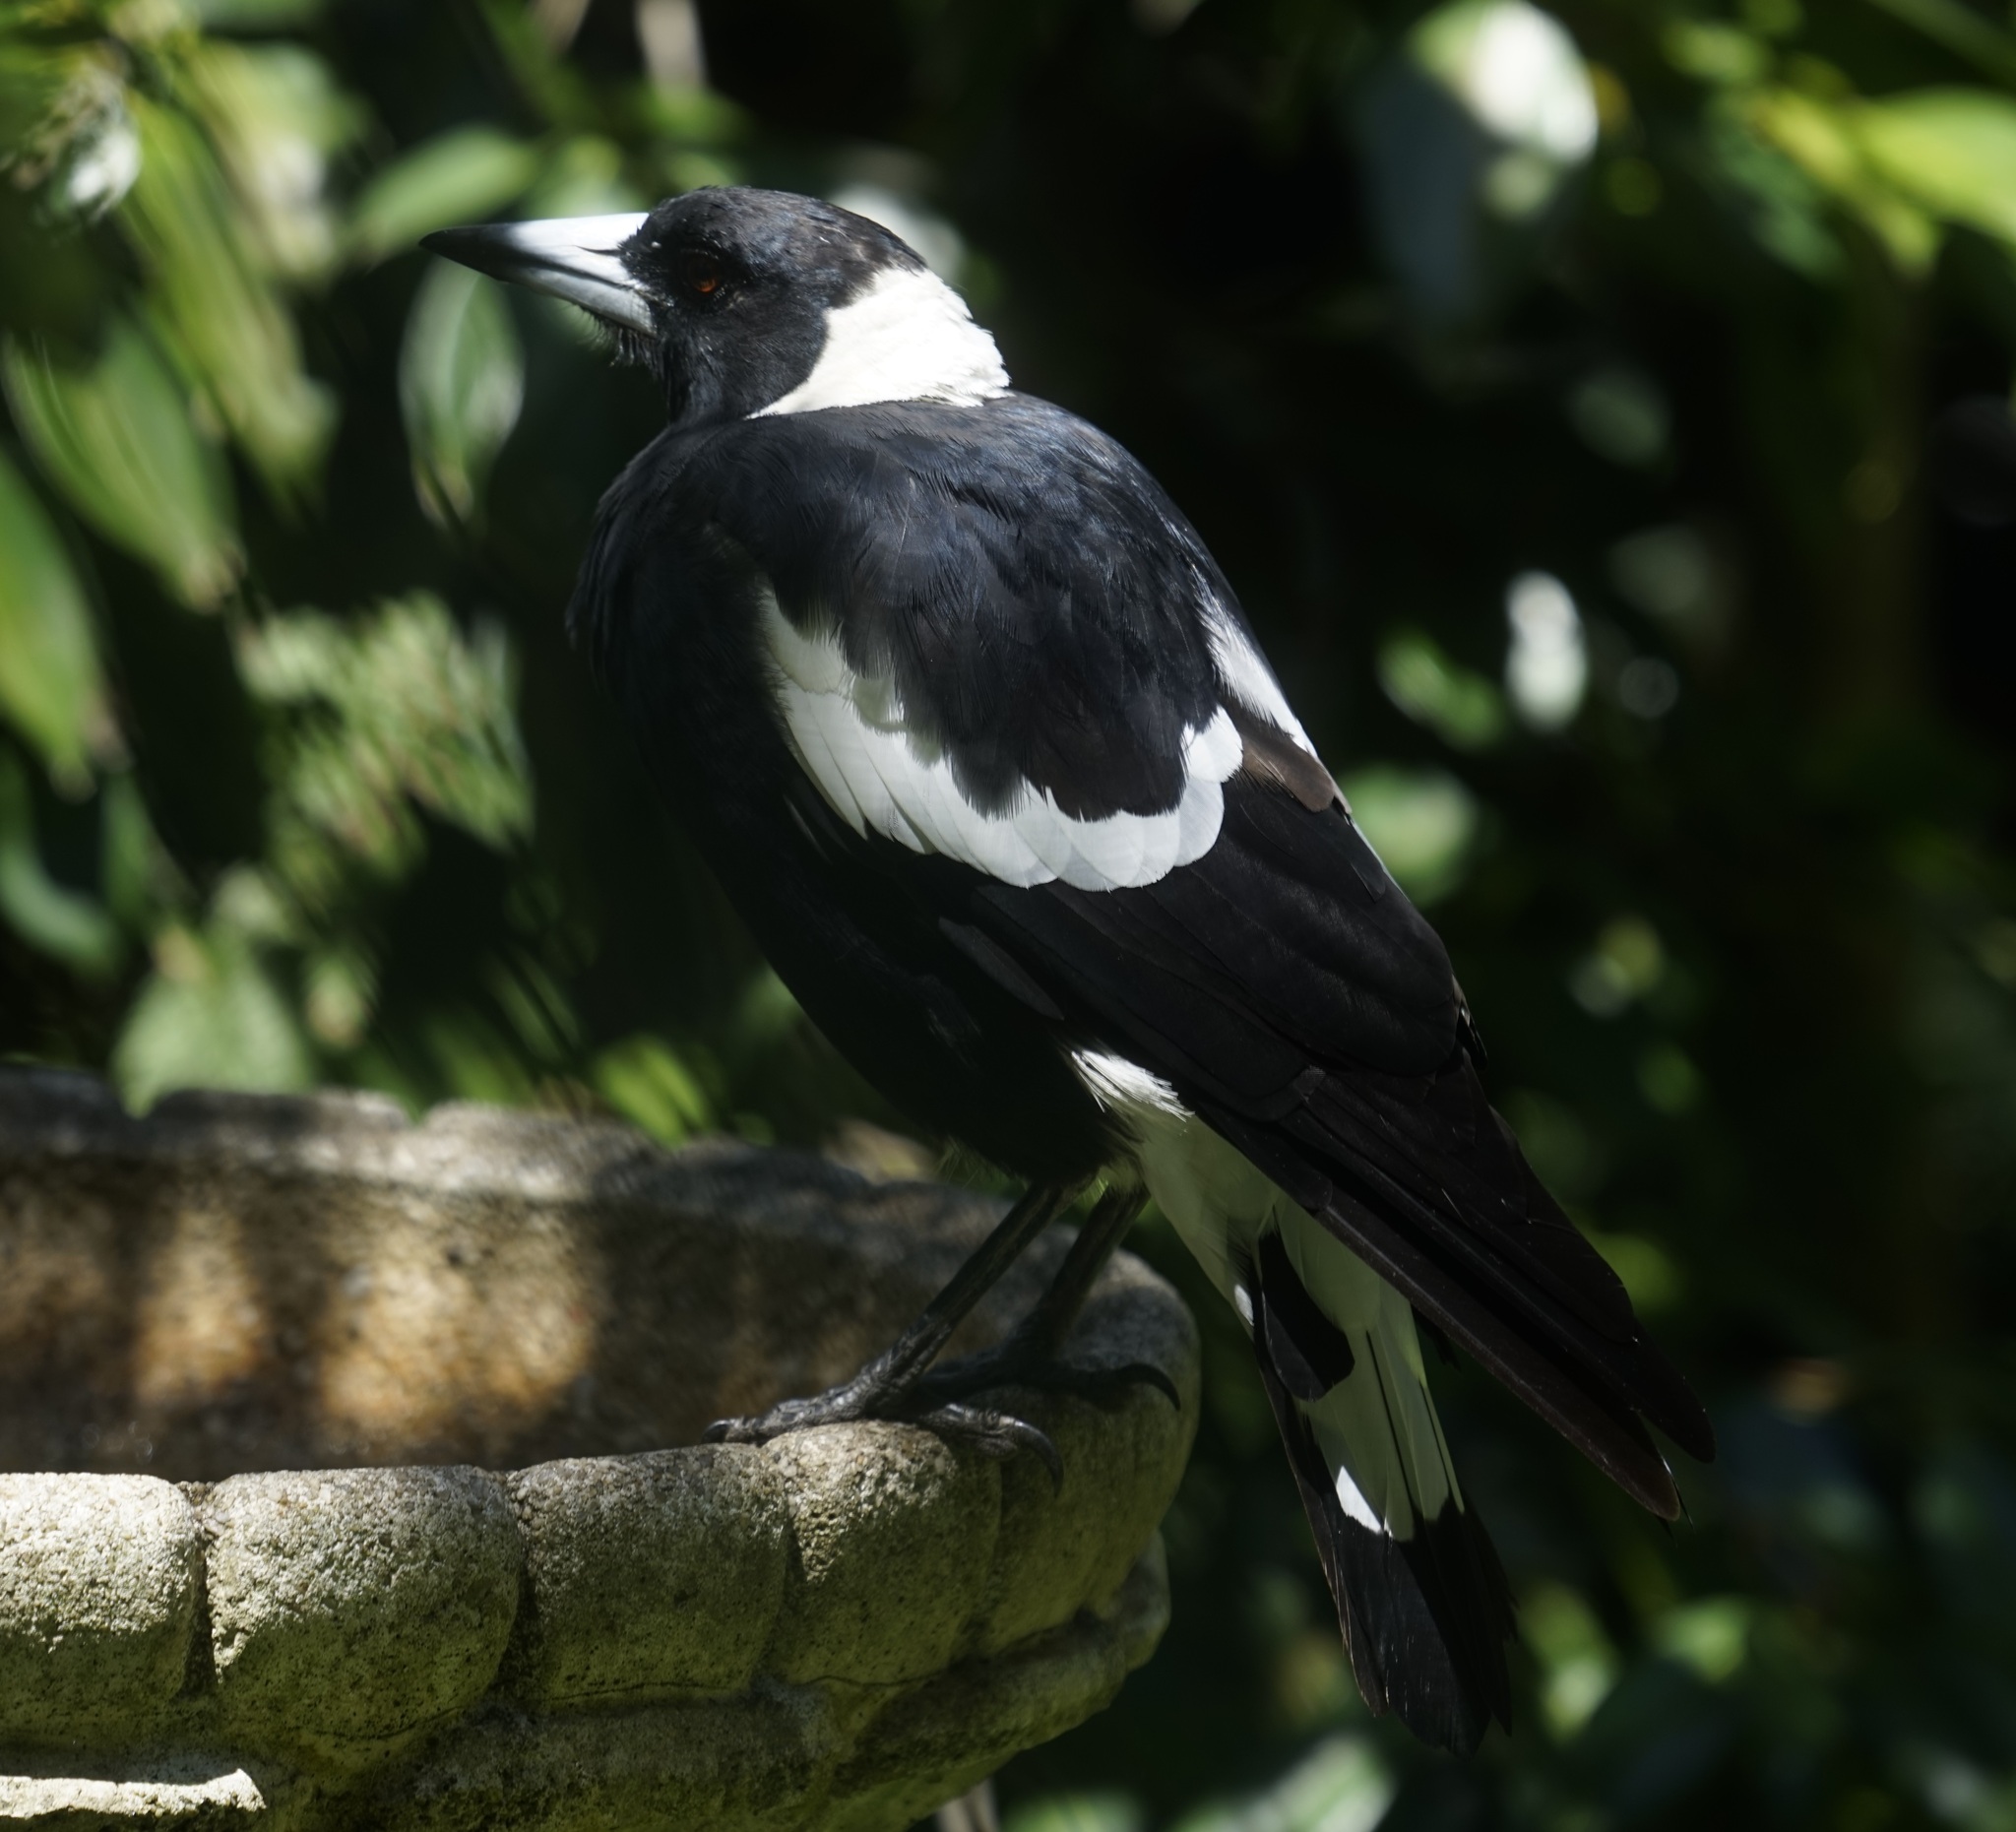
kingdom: Animalia
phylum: Chordata
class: Aves
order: Passeriformes
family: Cracticidae
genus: Gymnorhina
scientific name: Gymnorhina tibicen
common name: Australian magpie
